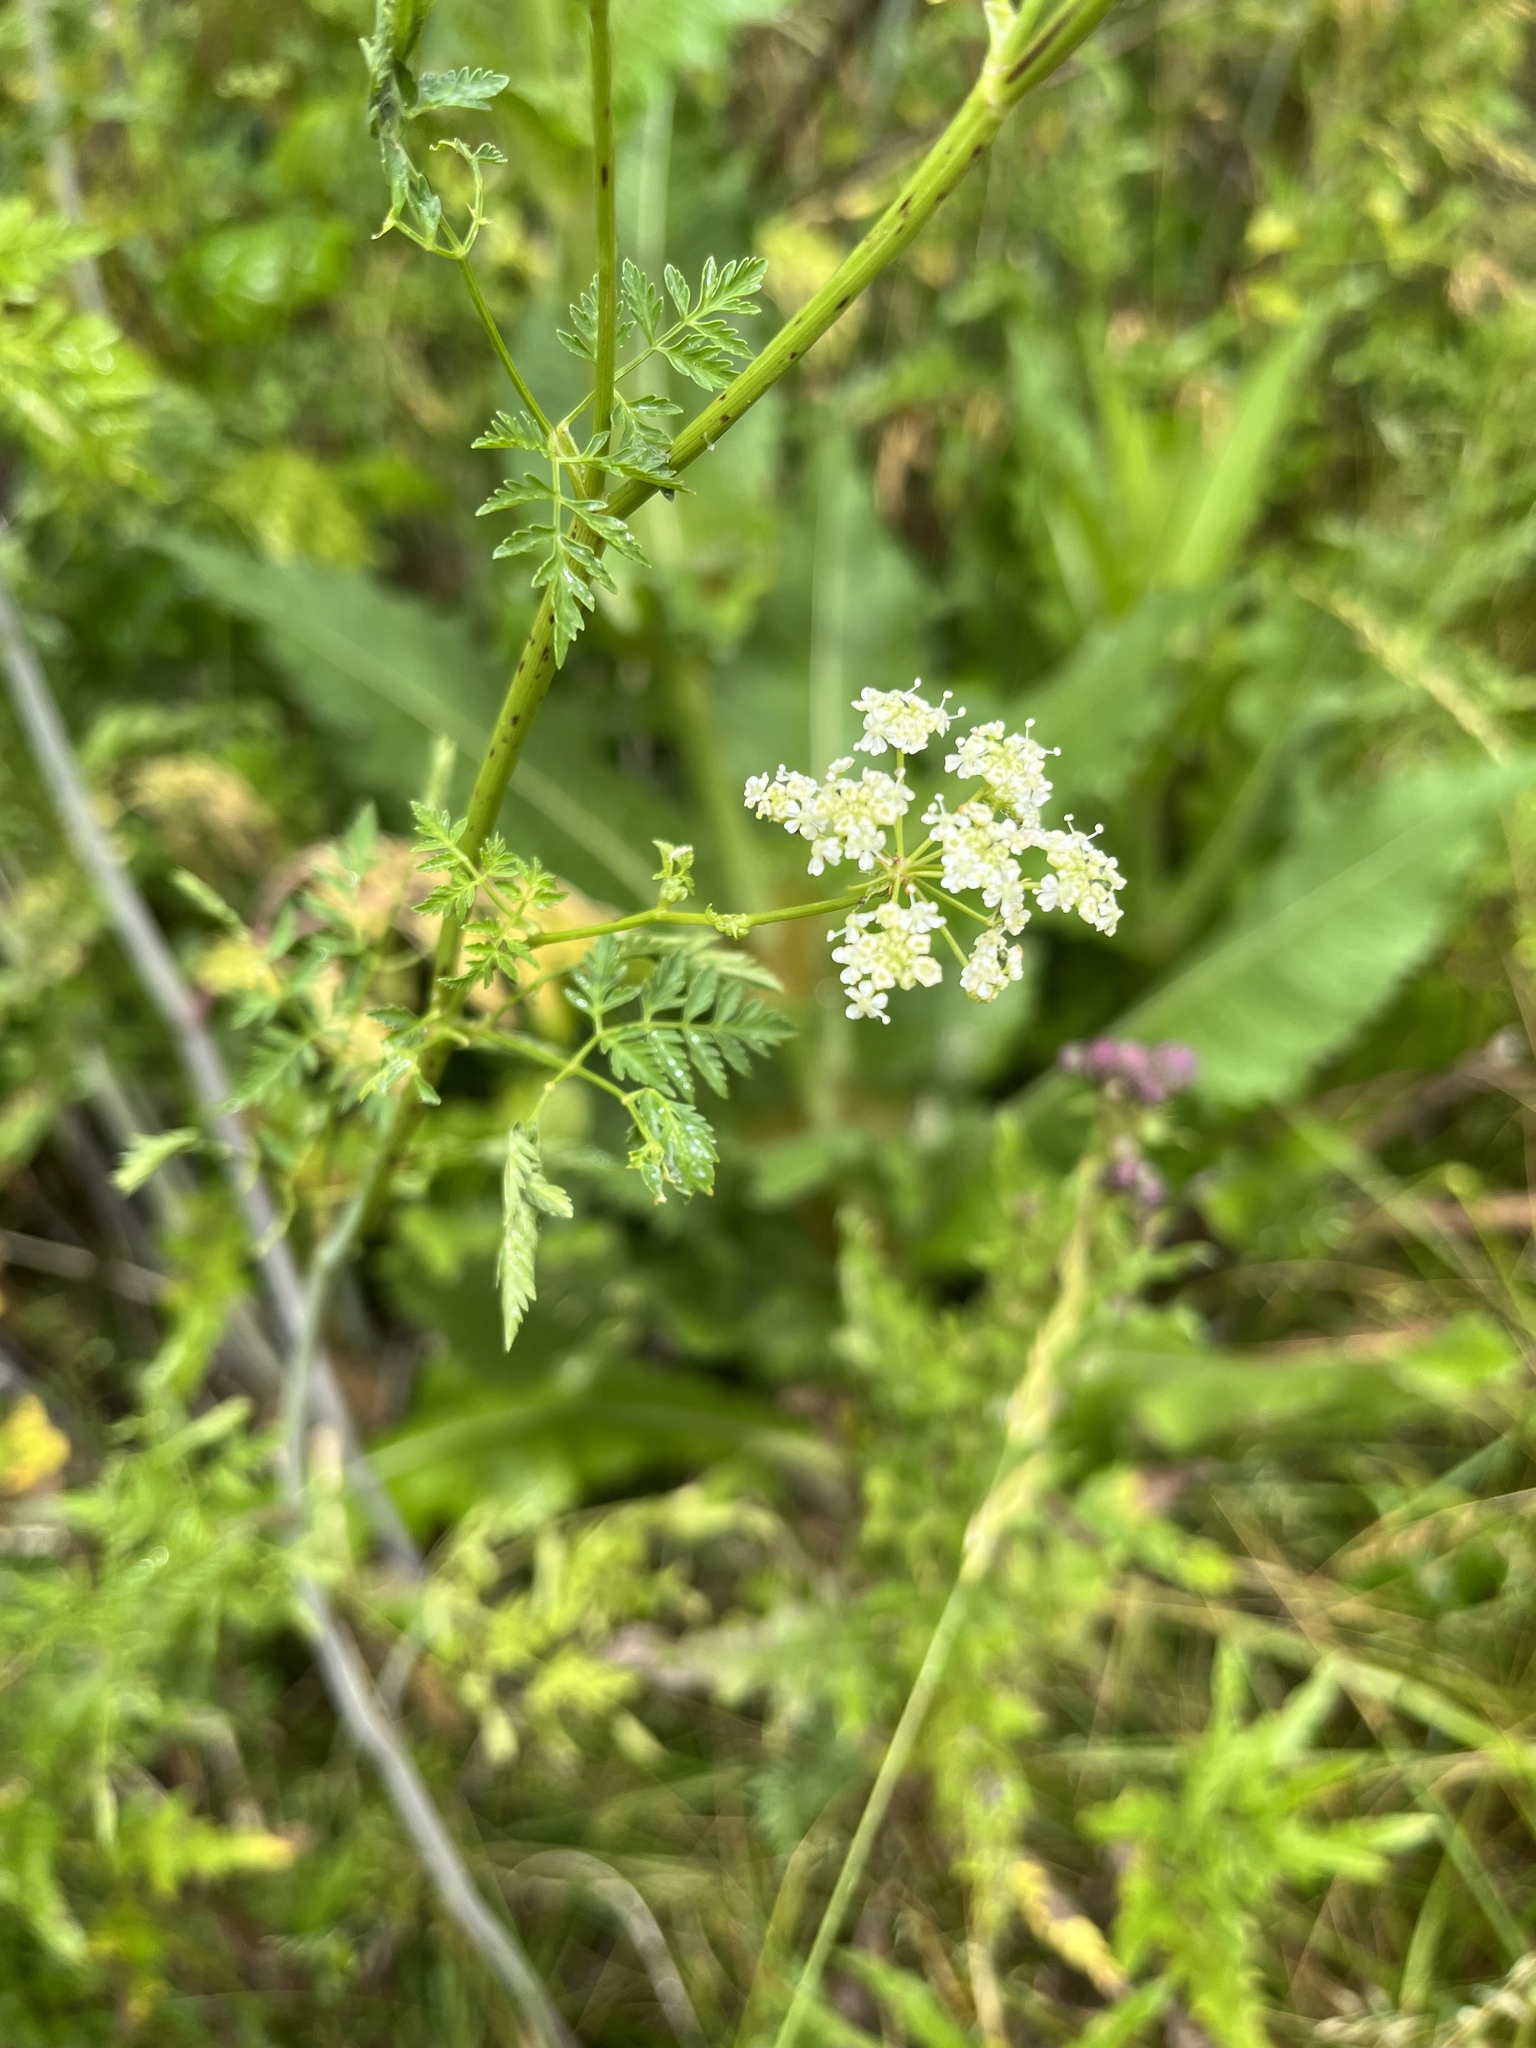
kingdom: Plantae
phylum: Tracheophyta
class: Magnoliopsida
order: Apiales
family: Apiaceae
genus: Conium
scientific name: Conium maculatum
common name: Hemlock
